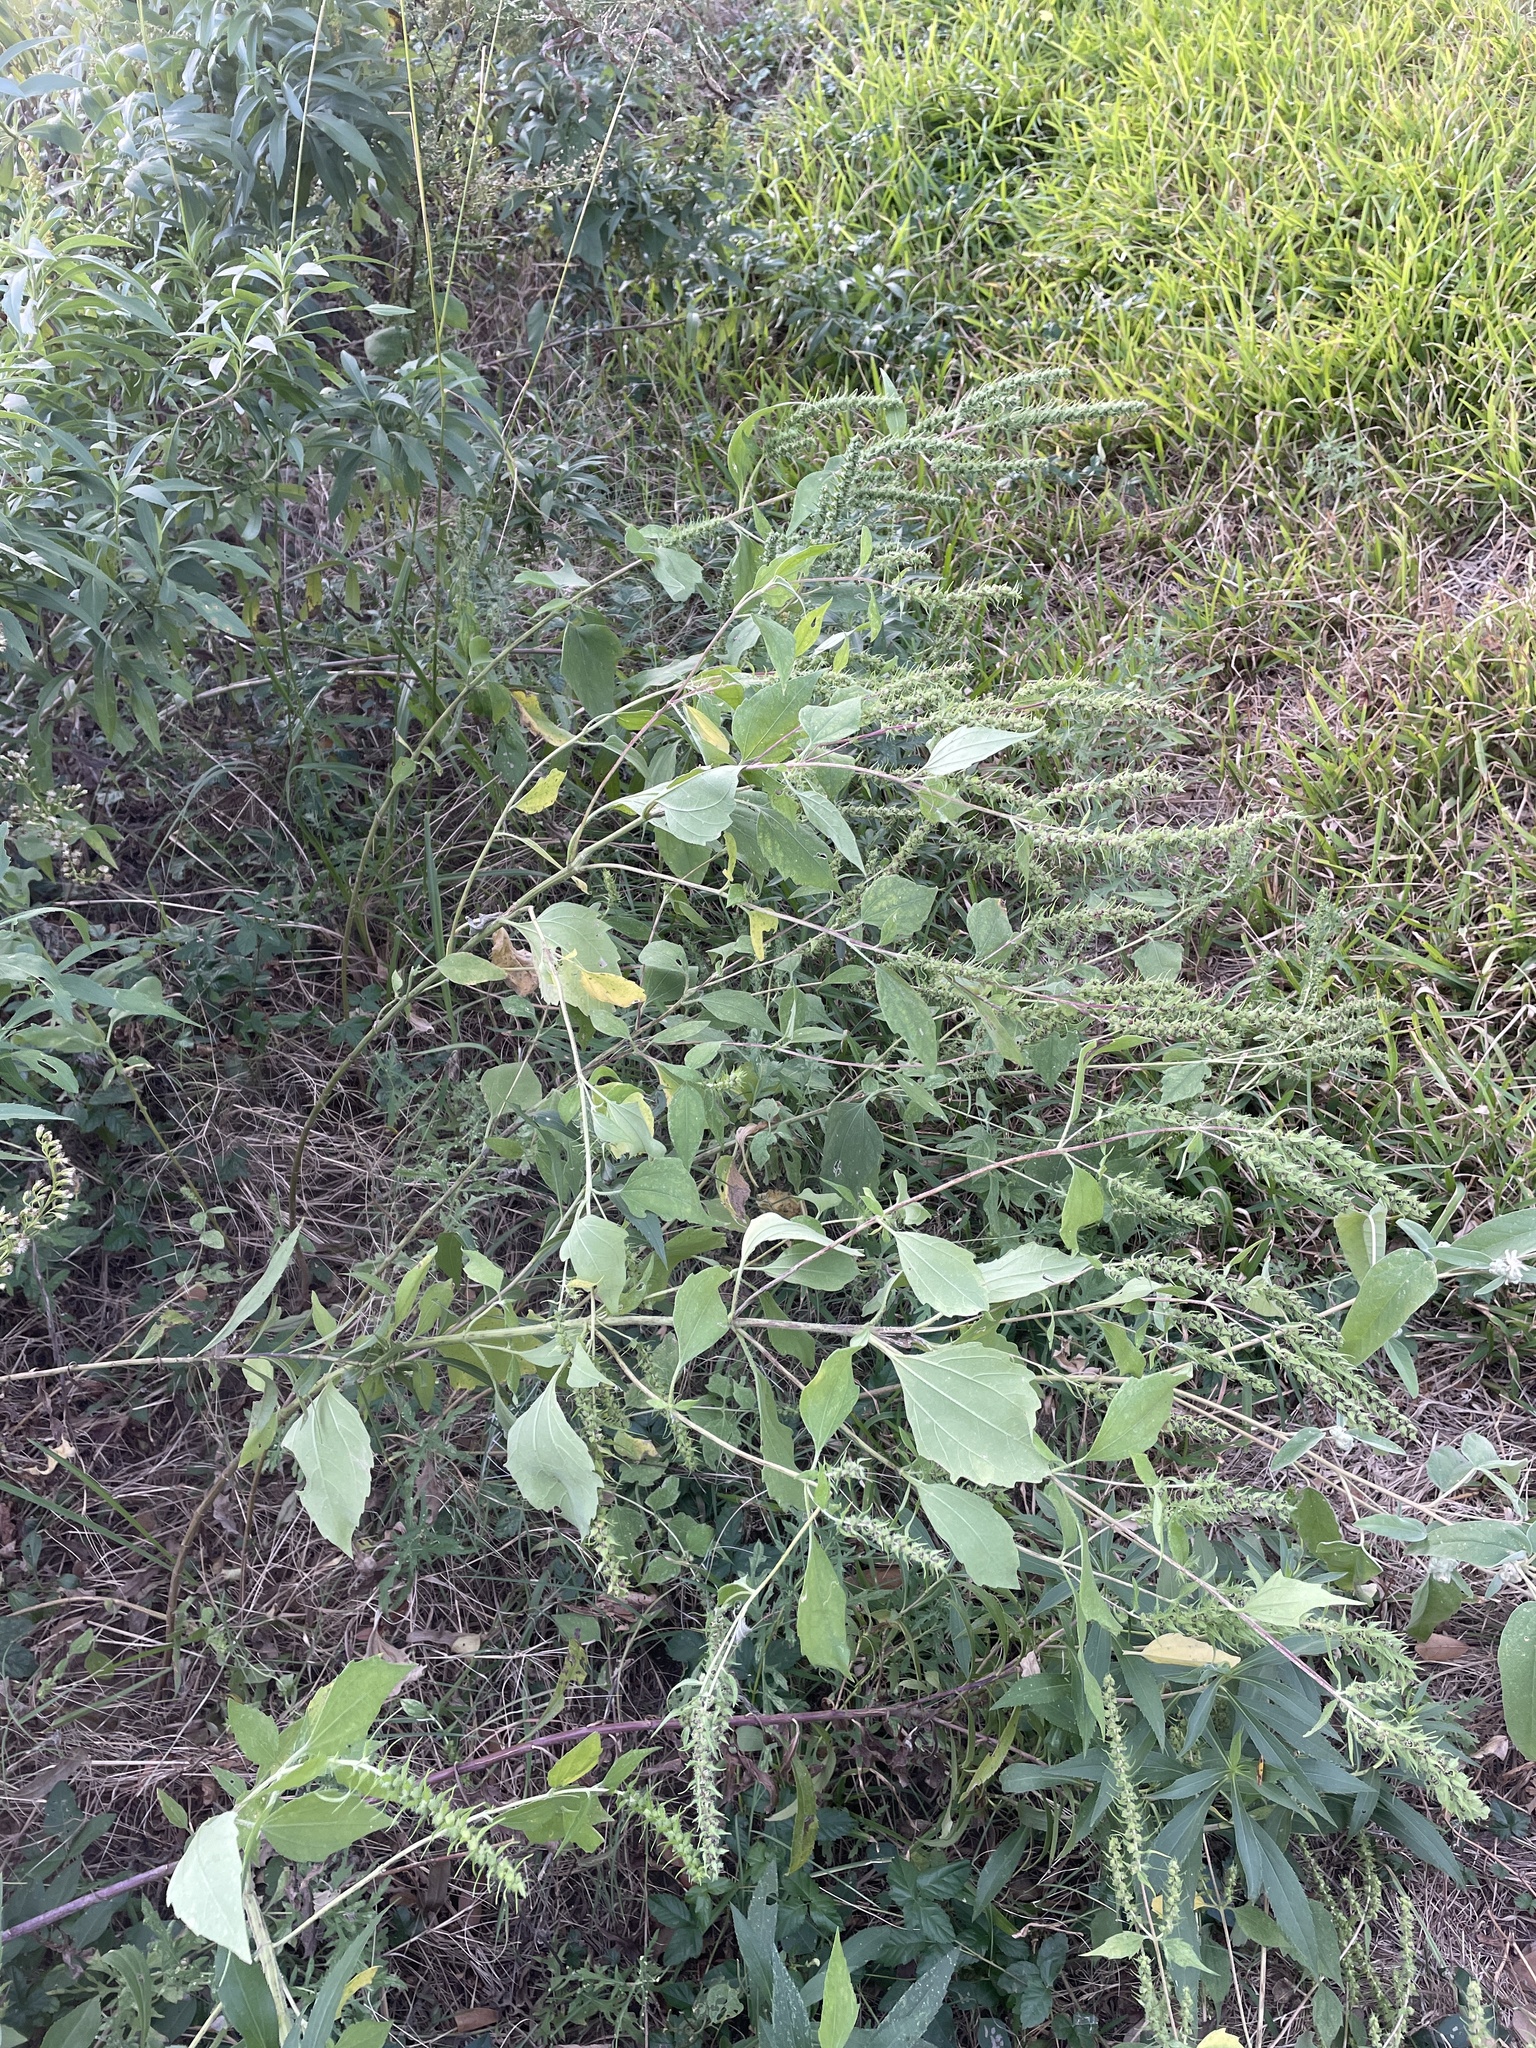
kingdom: Plantae
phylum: Tracheophyta
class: Magnoliopsida
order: Asterales
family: Asteraceae
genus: Iva
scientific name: Iva annua
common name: Marsh-elder
